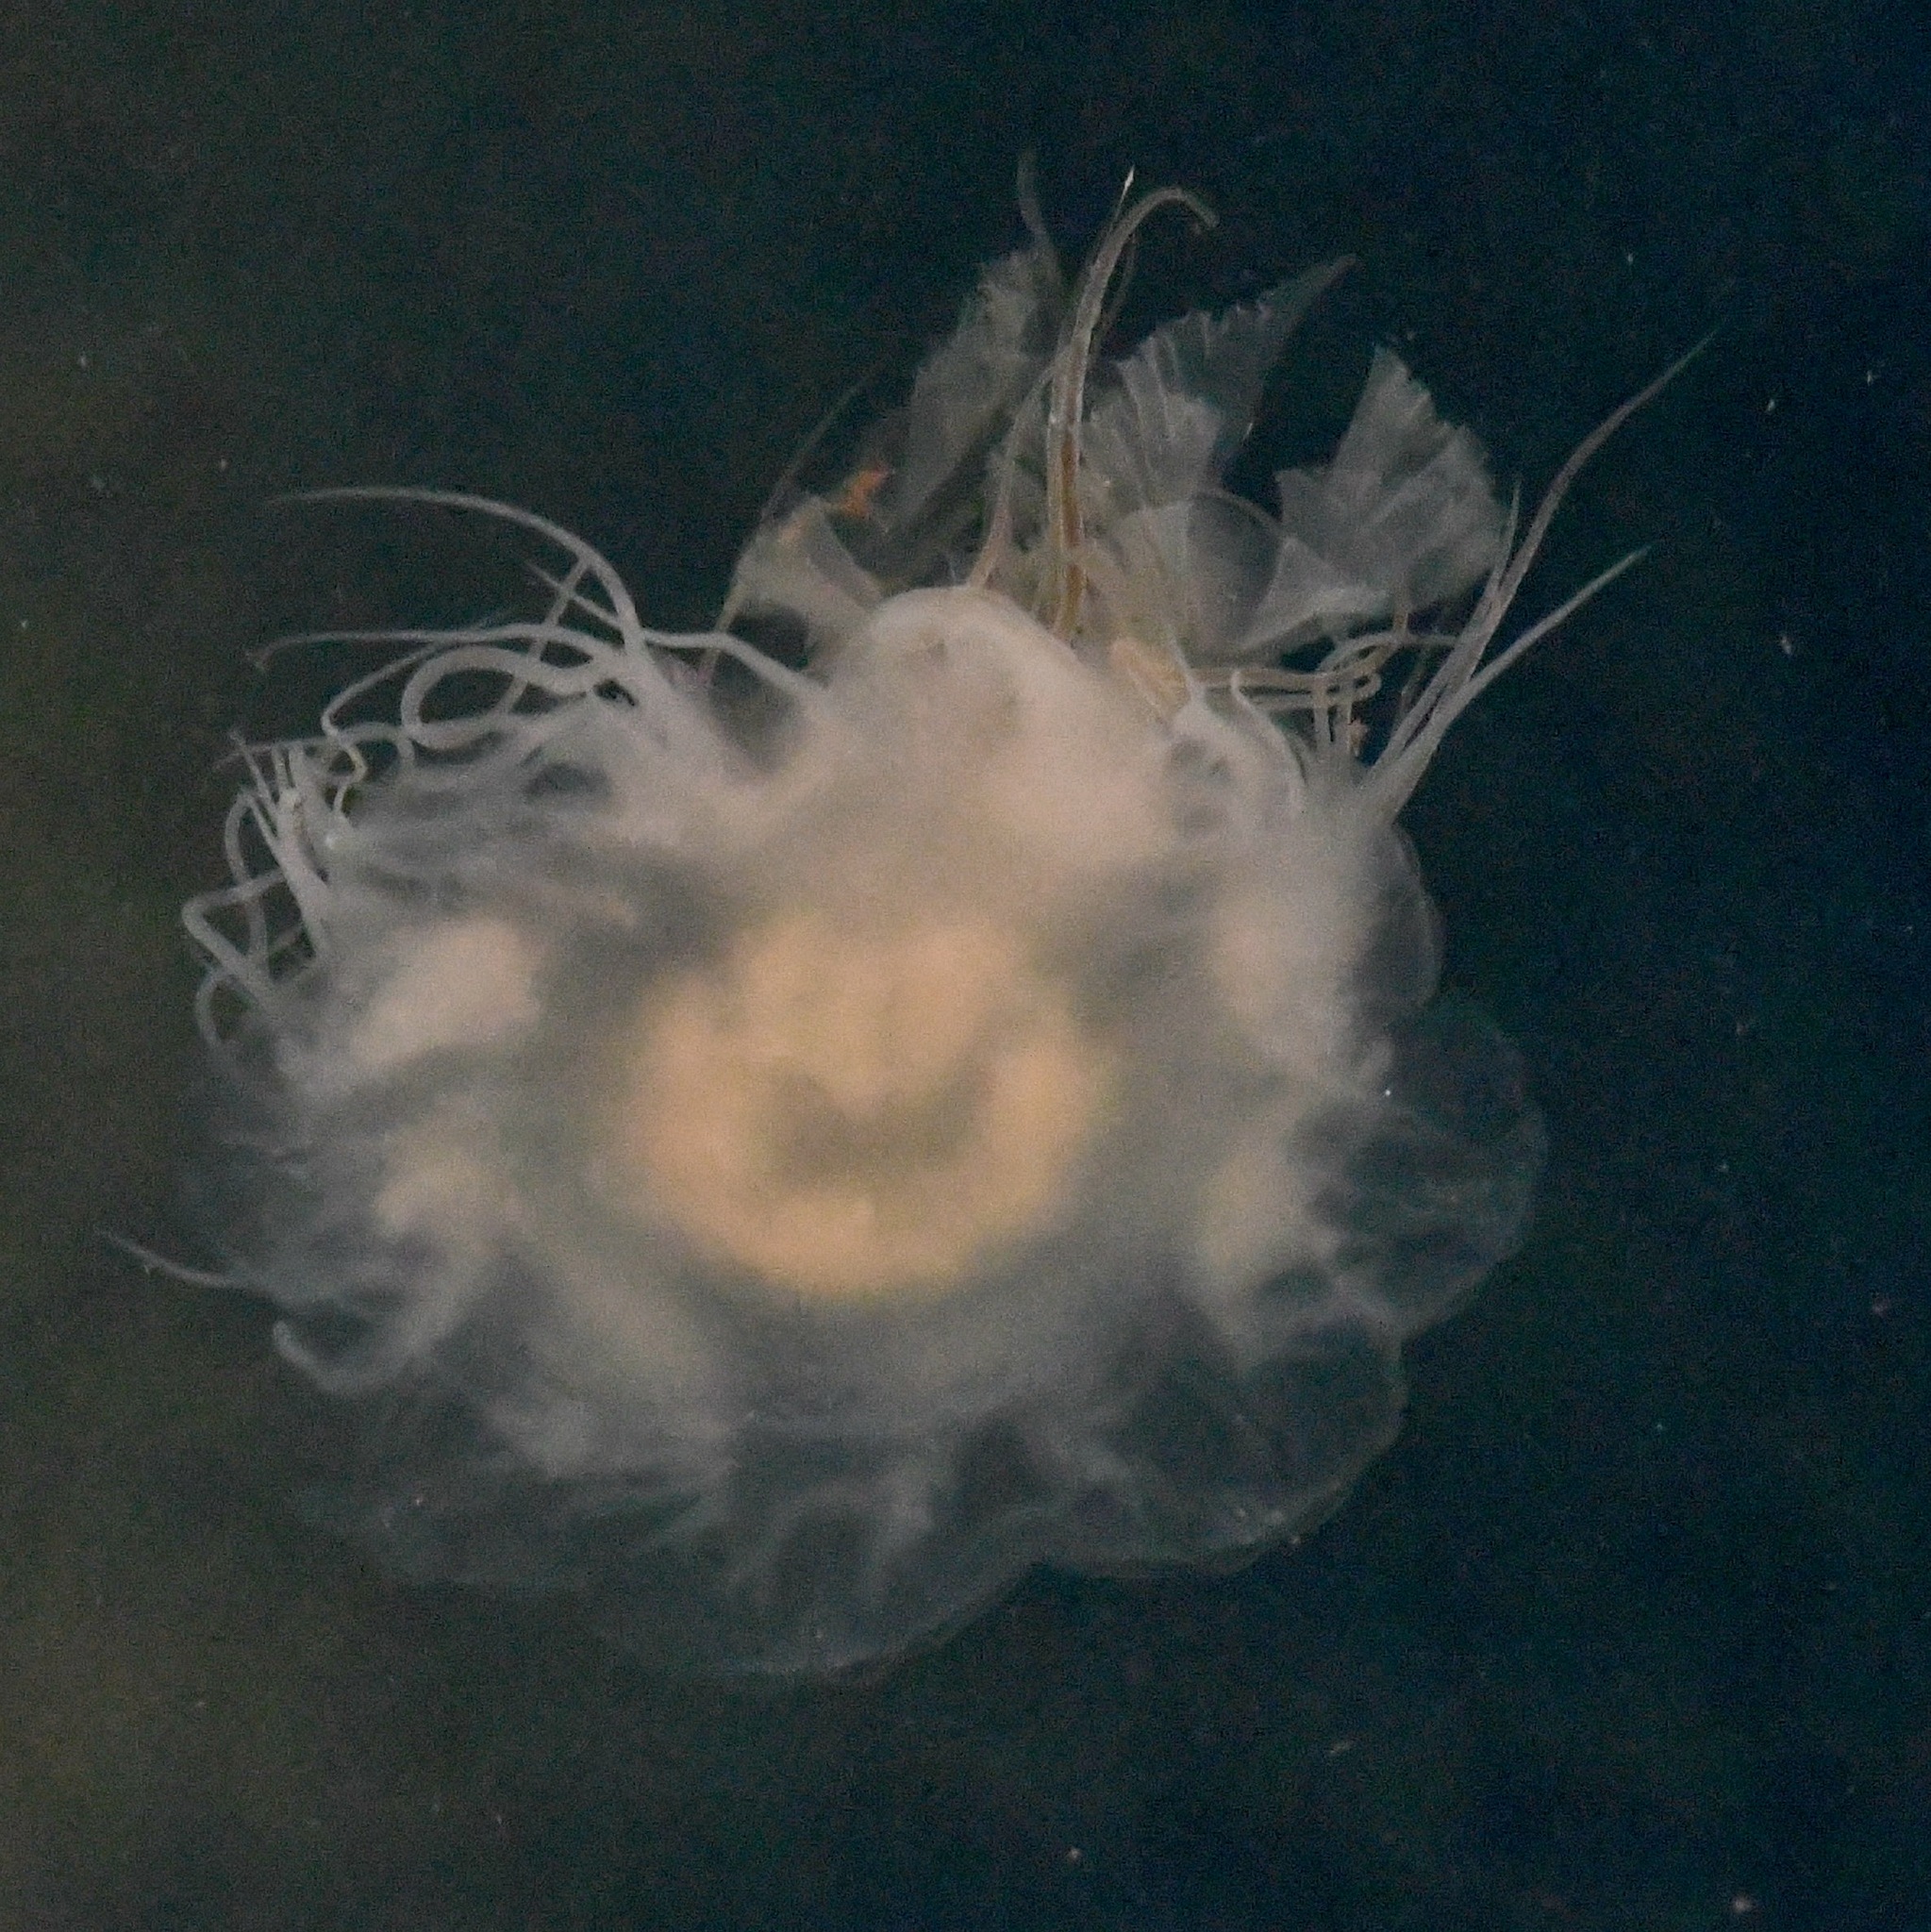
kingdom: Animalia
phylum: Cnidaria
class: Scyphozoa
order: Semaeostomeae
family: Cyaneidae
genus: Cyanea
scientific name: Cyanea fulva
